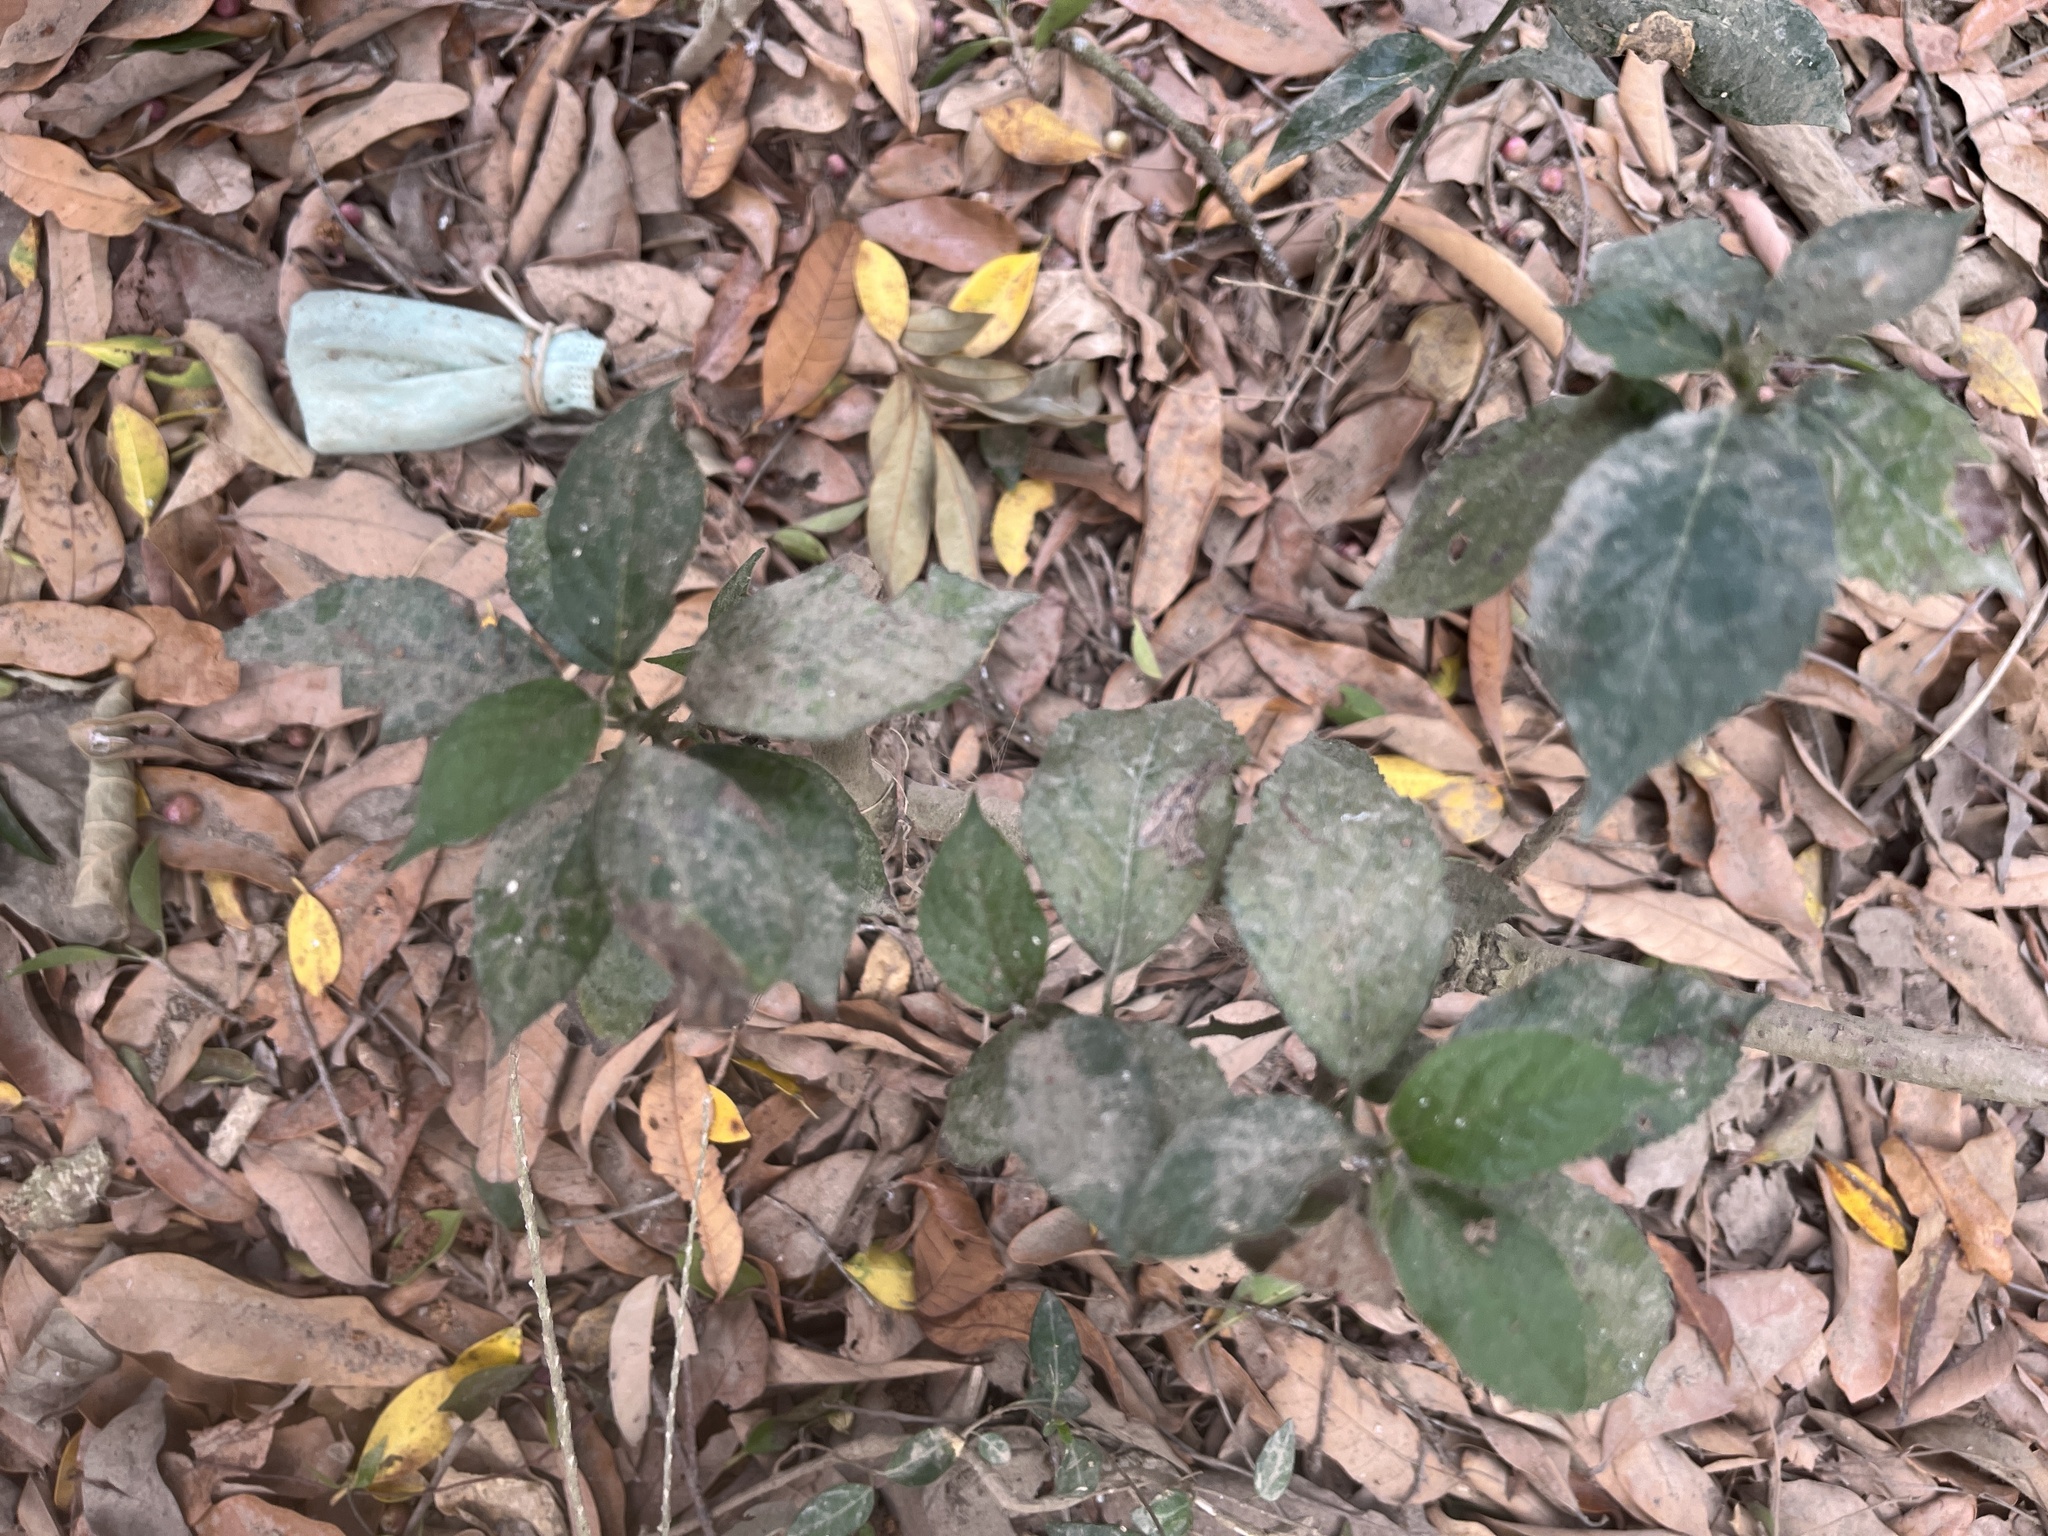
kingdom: Plantae
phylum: Tracheophyta
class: Magnoliopsida
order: Boraginales
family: Ehretiaceae
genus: Ehretia
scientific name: Ehretia resinosa
